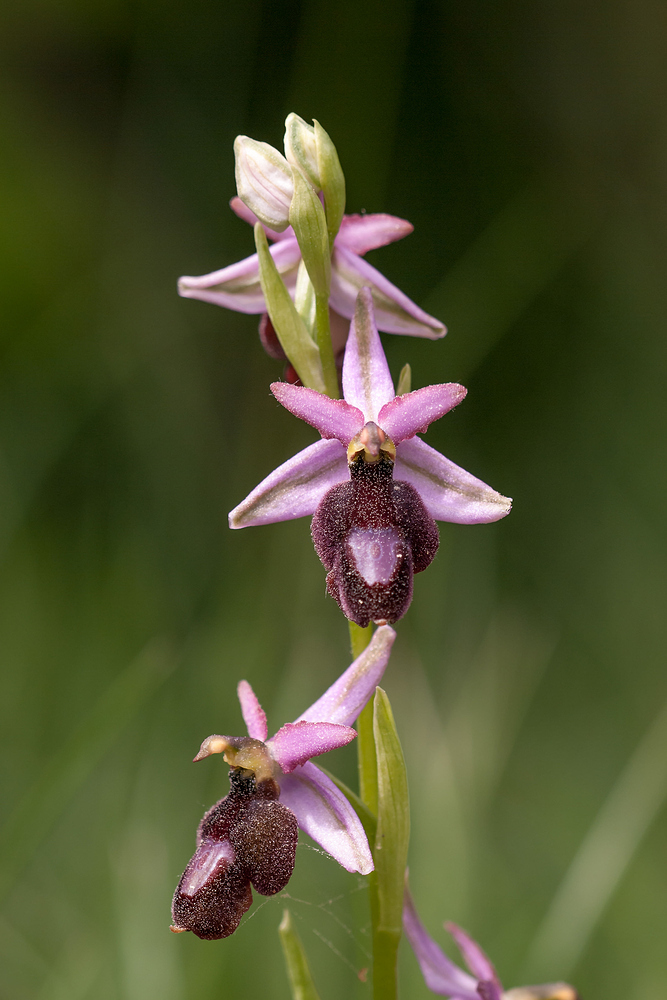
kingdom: Plantae
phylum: Tracheophyta
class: Liliopsida
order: Asparagales
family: Orchidaceae
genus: Ophrys
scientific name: Ophrys flavicans
